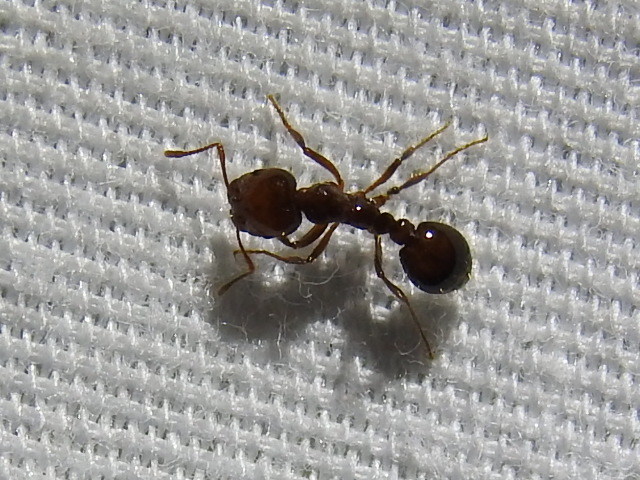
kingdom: Animalia
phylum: Arthropoda
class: Insecta
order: Hymenoptera
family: Formicidae
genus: Solenopsis
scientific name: Solenopsis invicta
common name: Red imported fire ant
